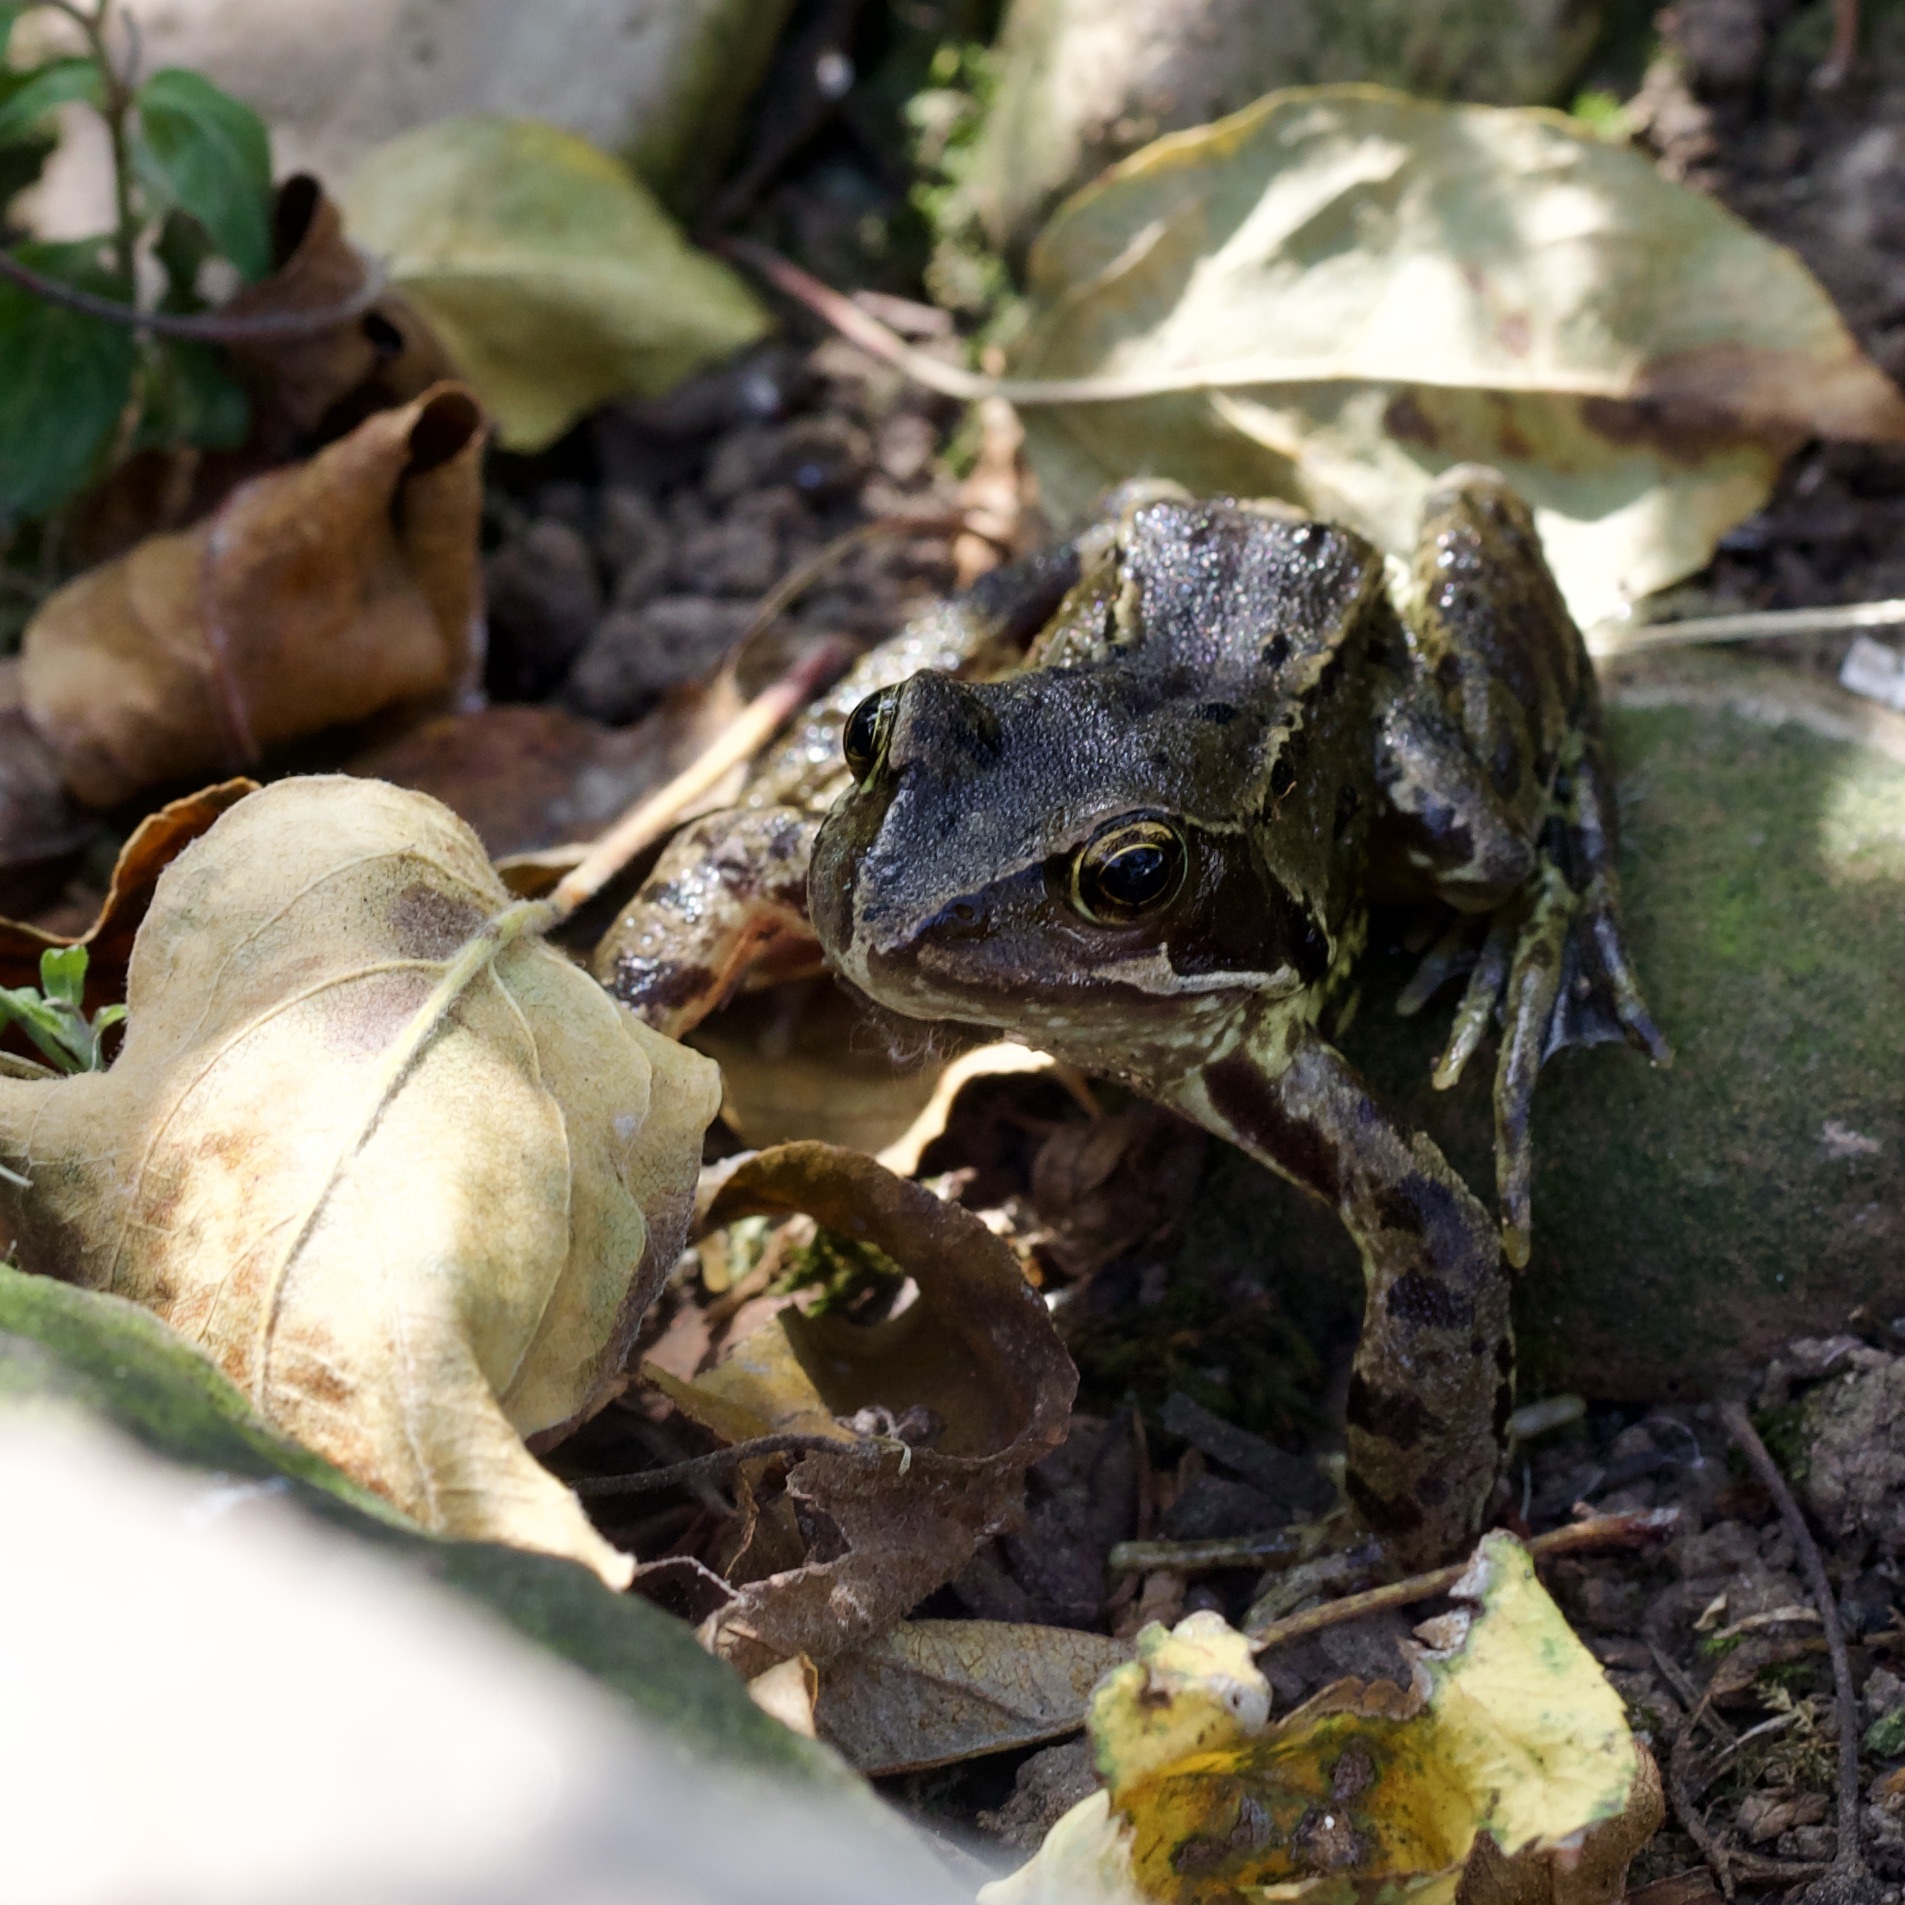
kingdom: Animalia
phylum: Chordata
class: Amphibia
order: Anura
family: Ranidae
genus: Rana
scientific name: Rana temporaria
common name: Common frog
